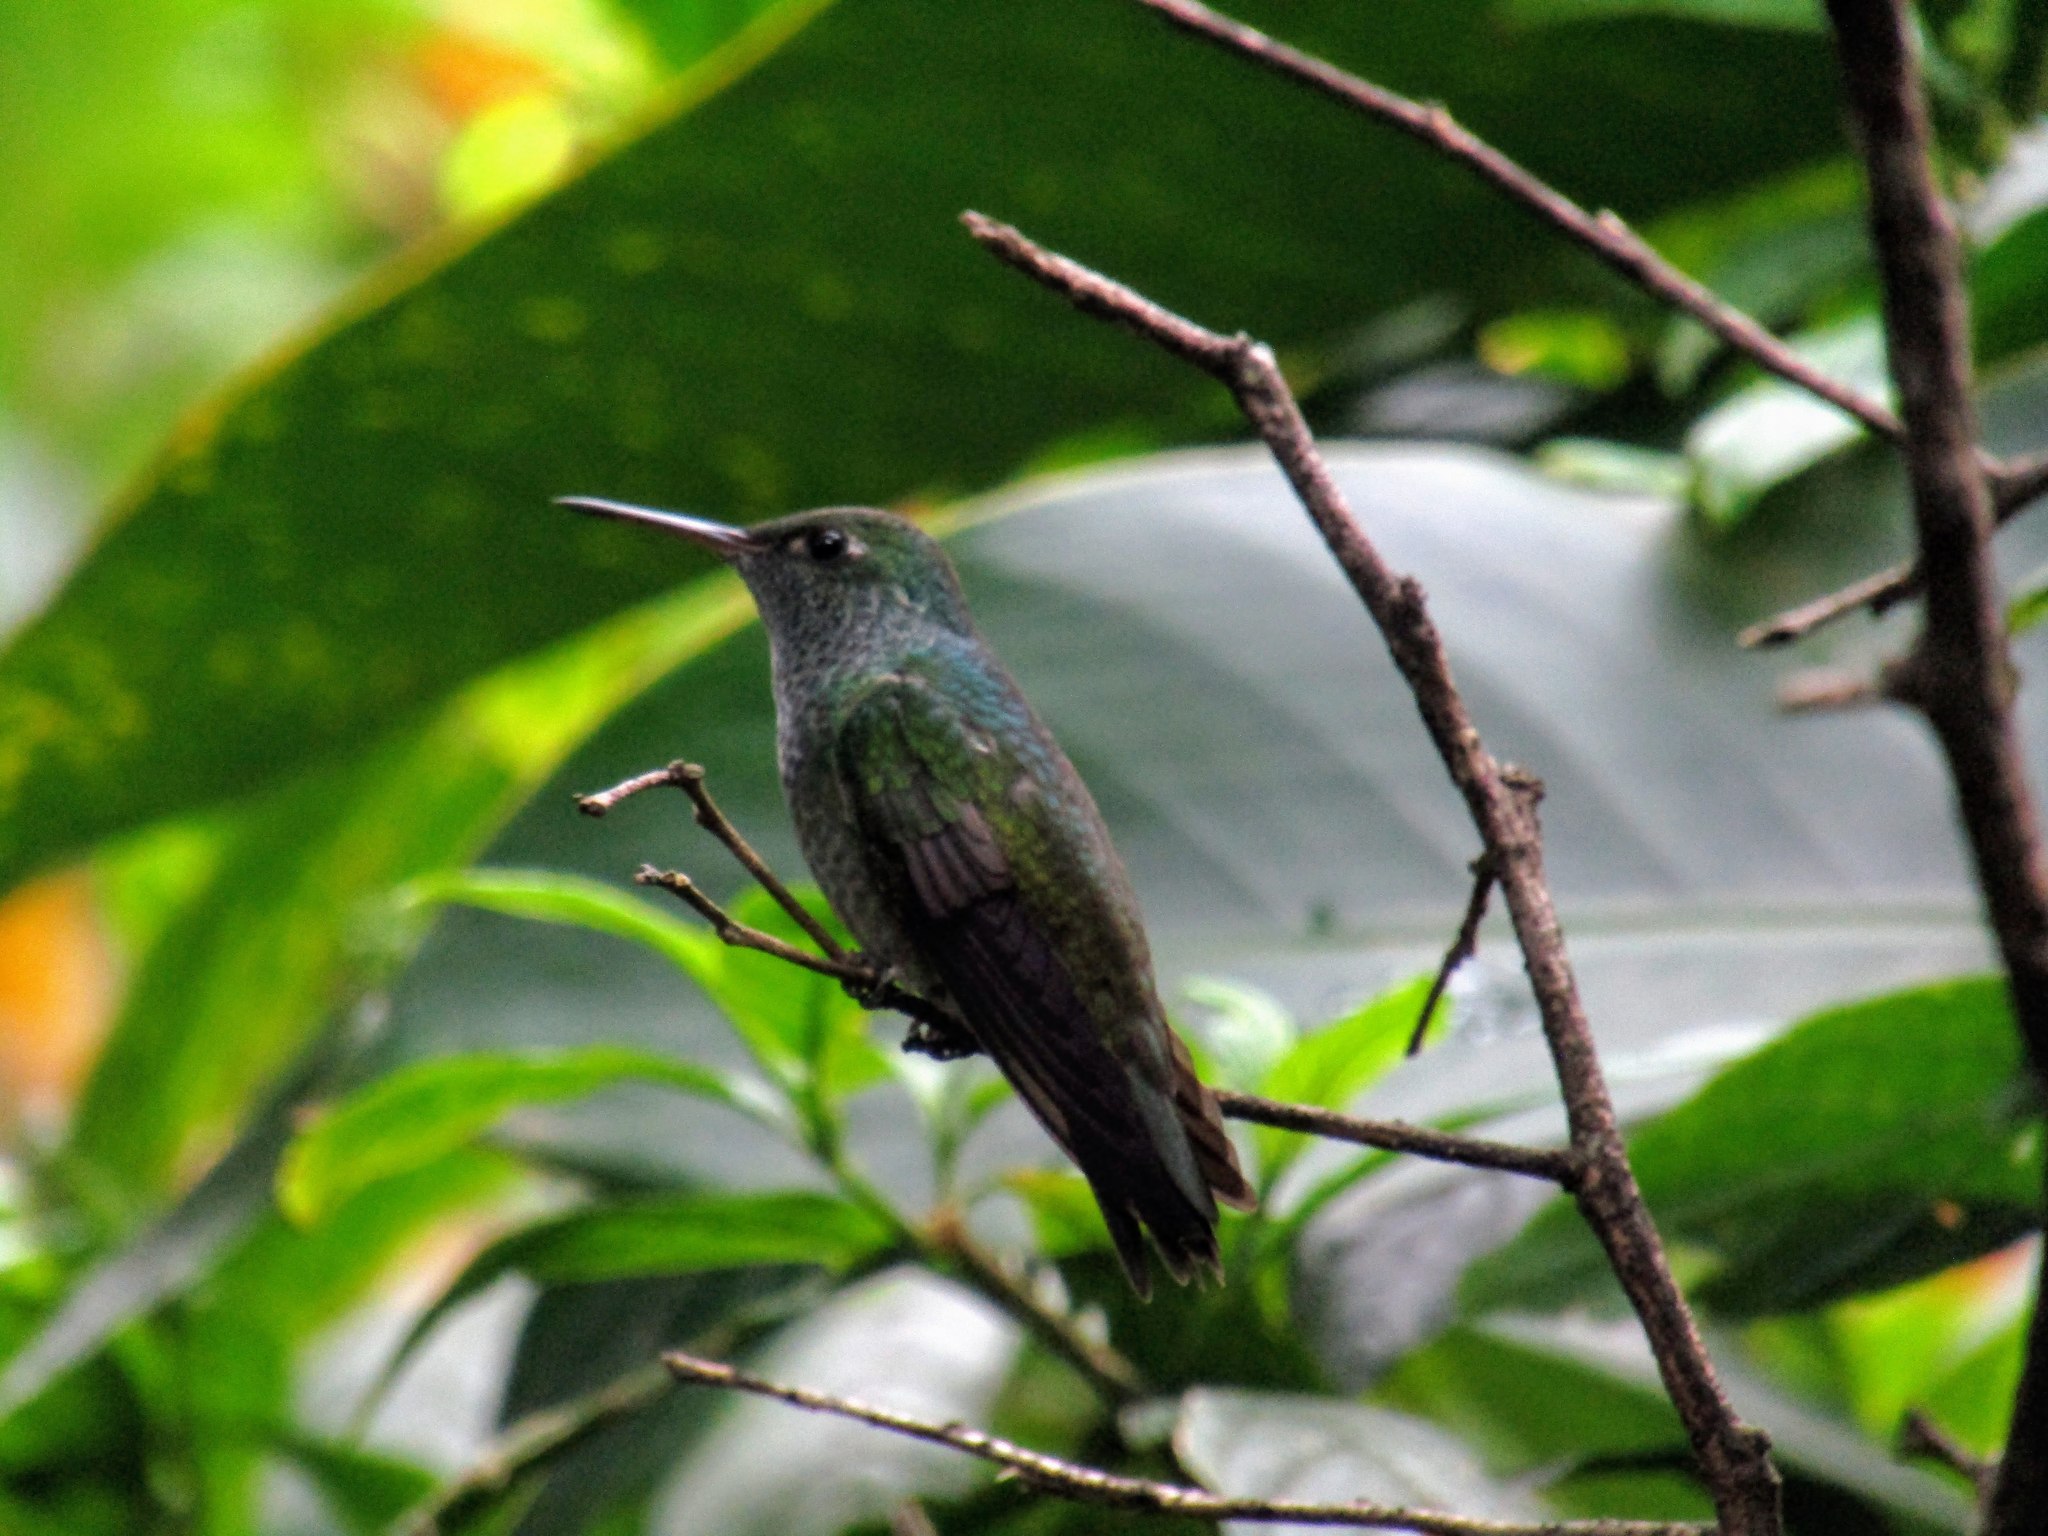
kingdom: Animalia
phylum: Chordata
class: Aves
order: Apodiformes
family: Trochilidae
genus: Chrysuronia
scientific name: Chrysuronia versicolor
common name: Versicolored emerald
